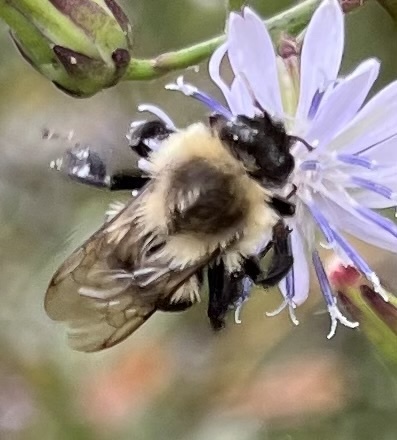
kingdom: Animalia
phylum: Arthropoda
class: Insecta
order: Hymenoptera
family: Apidae
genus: Bombus
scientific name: Bombus impatiens
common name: Common eastern bumble bee
